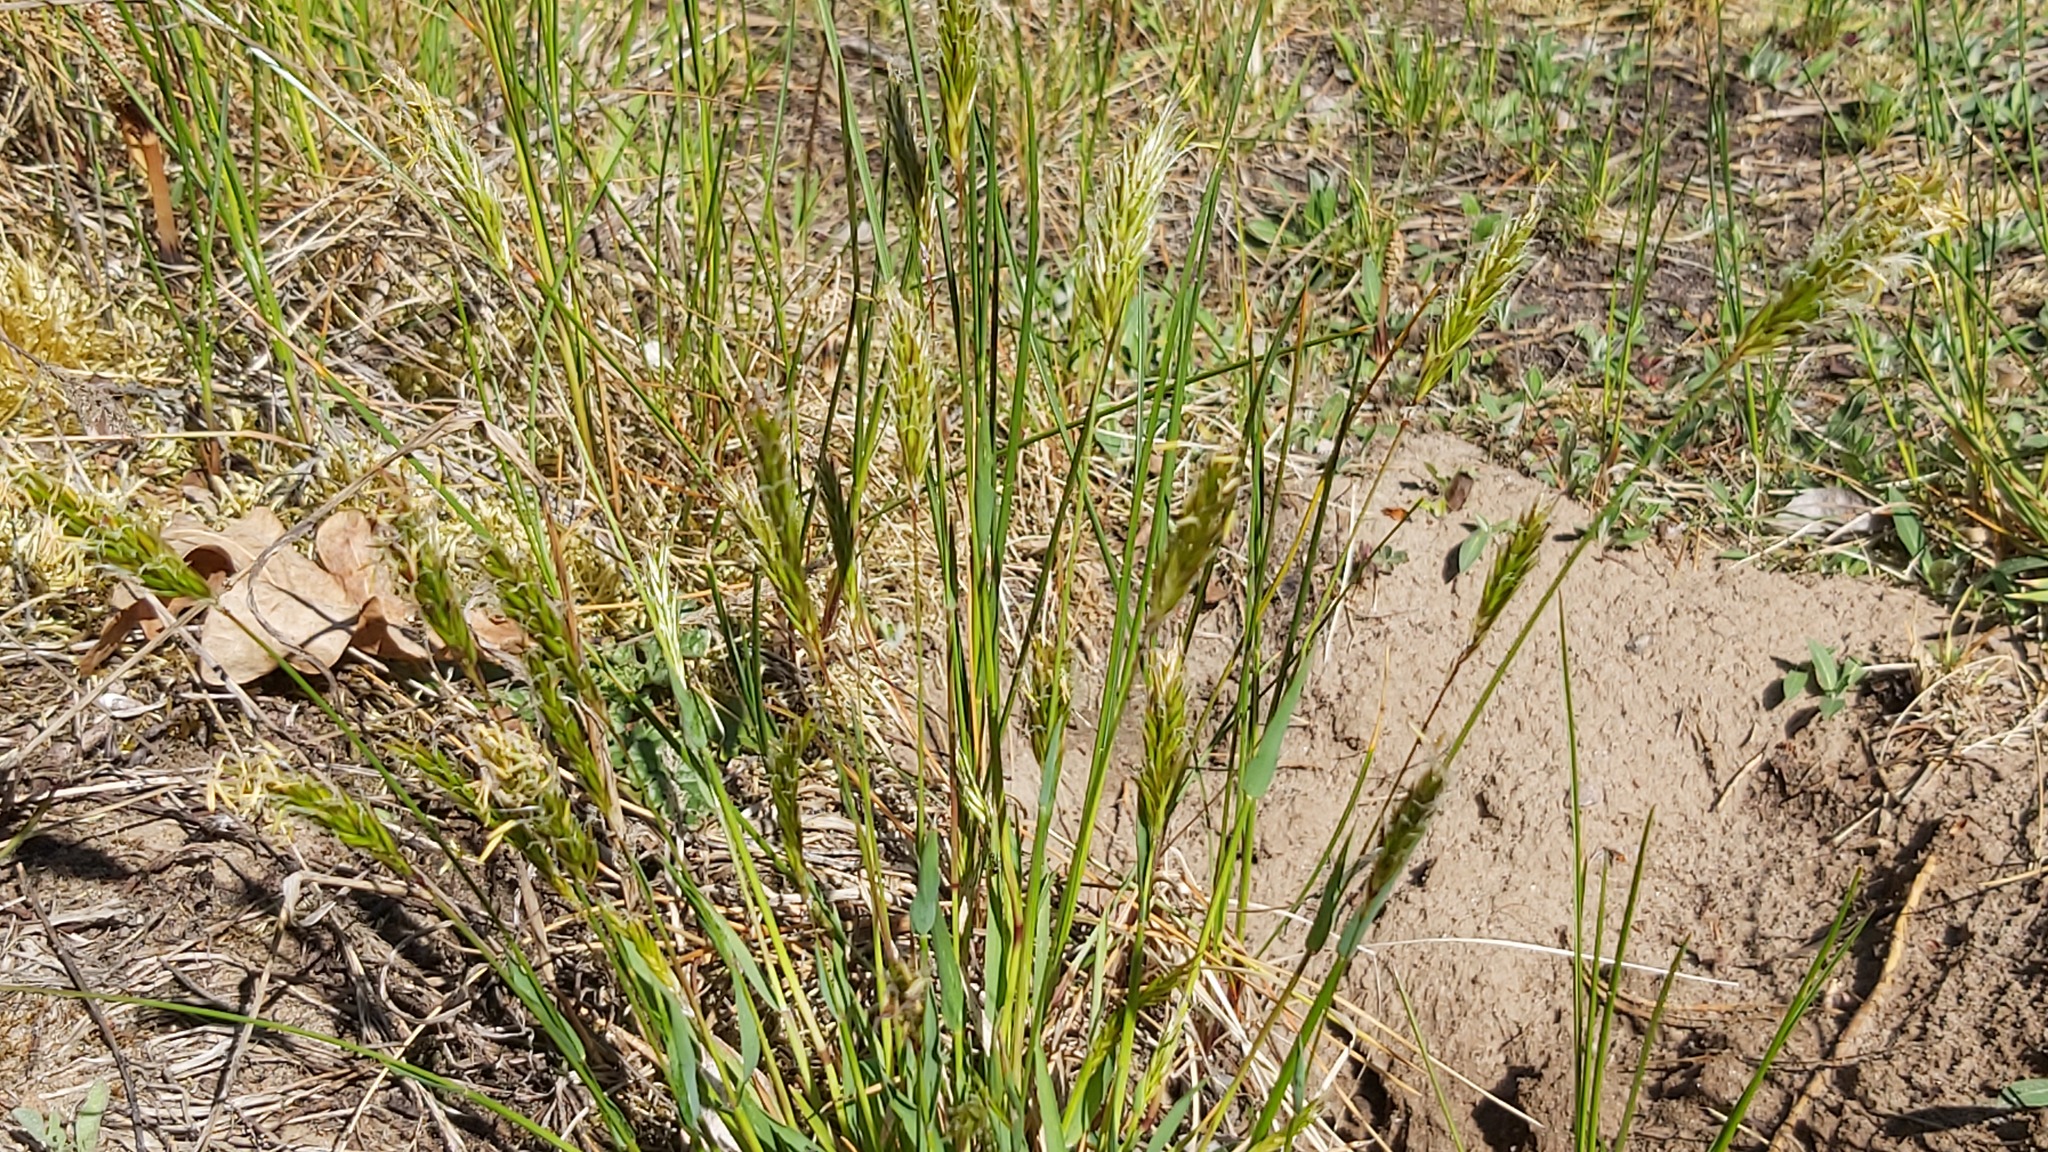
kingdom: Plantae
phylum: Tracheophyta
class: Liliopsida
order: Poales
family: Poaceae
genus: Anthoxanthum
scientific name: Anthoxanthum odoratum
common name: Sweet vernalgrass
